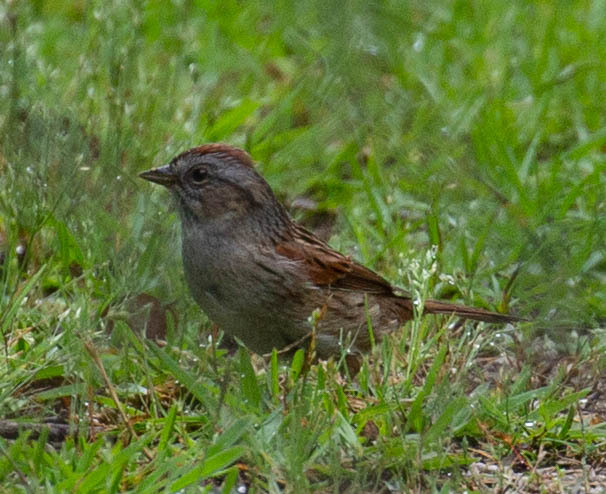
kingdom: Animalia
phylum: Chordata
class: Aves
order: Passeriformes
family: Passerellidae
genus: Melospiza
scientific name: Melospiza georgiana
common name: Swamp sparrow
